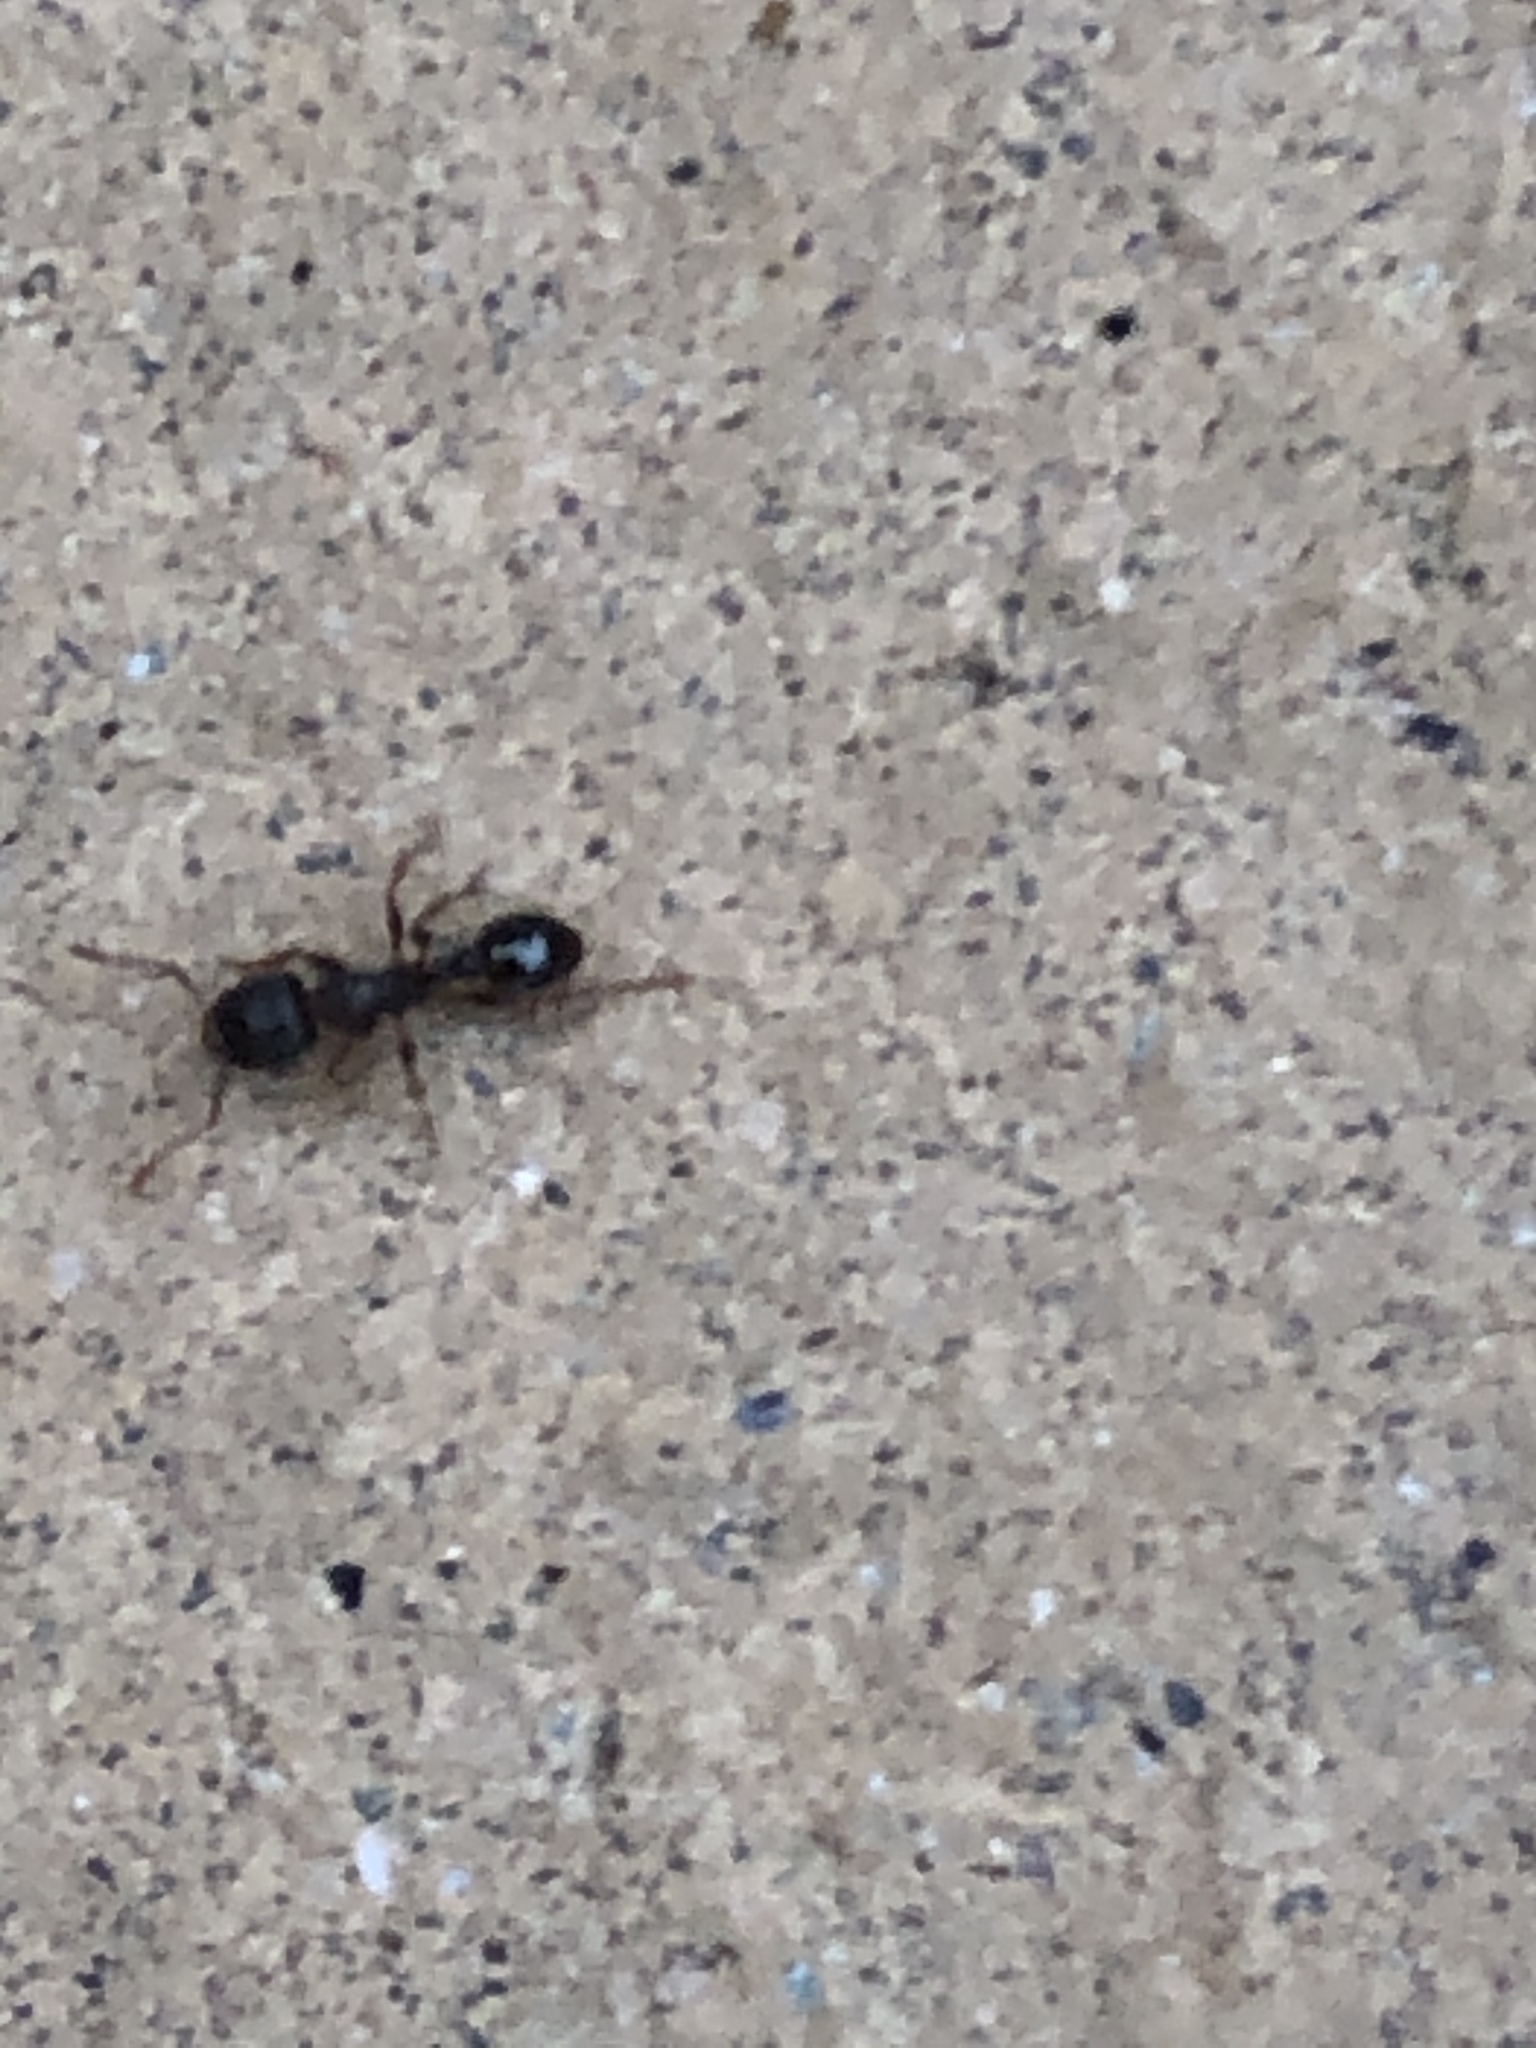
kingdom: Animalia
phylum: Arthropoda
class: Insecta
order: Hymenoptera
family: Formicidae
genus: Tetramorium
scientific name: Tetramorium immigrans
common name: Pavement ant
